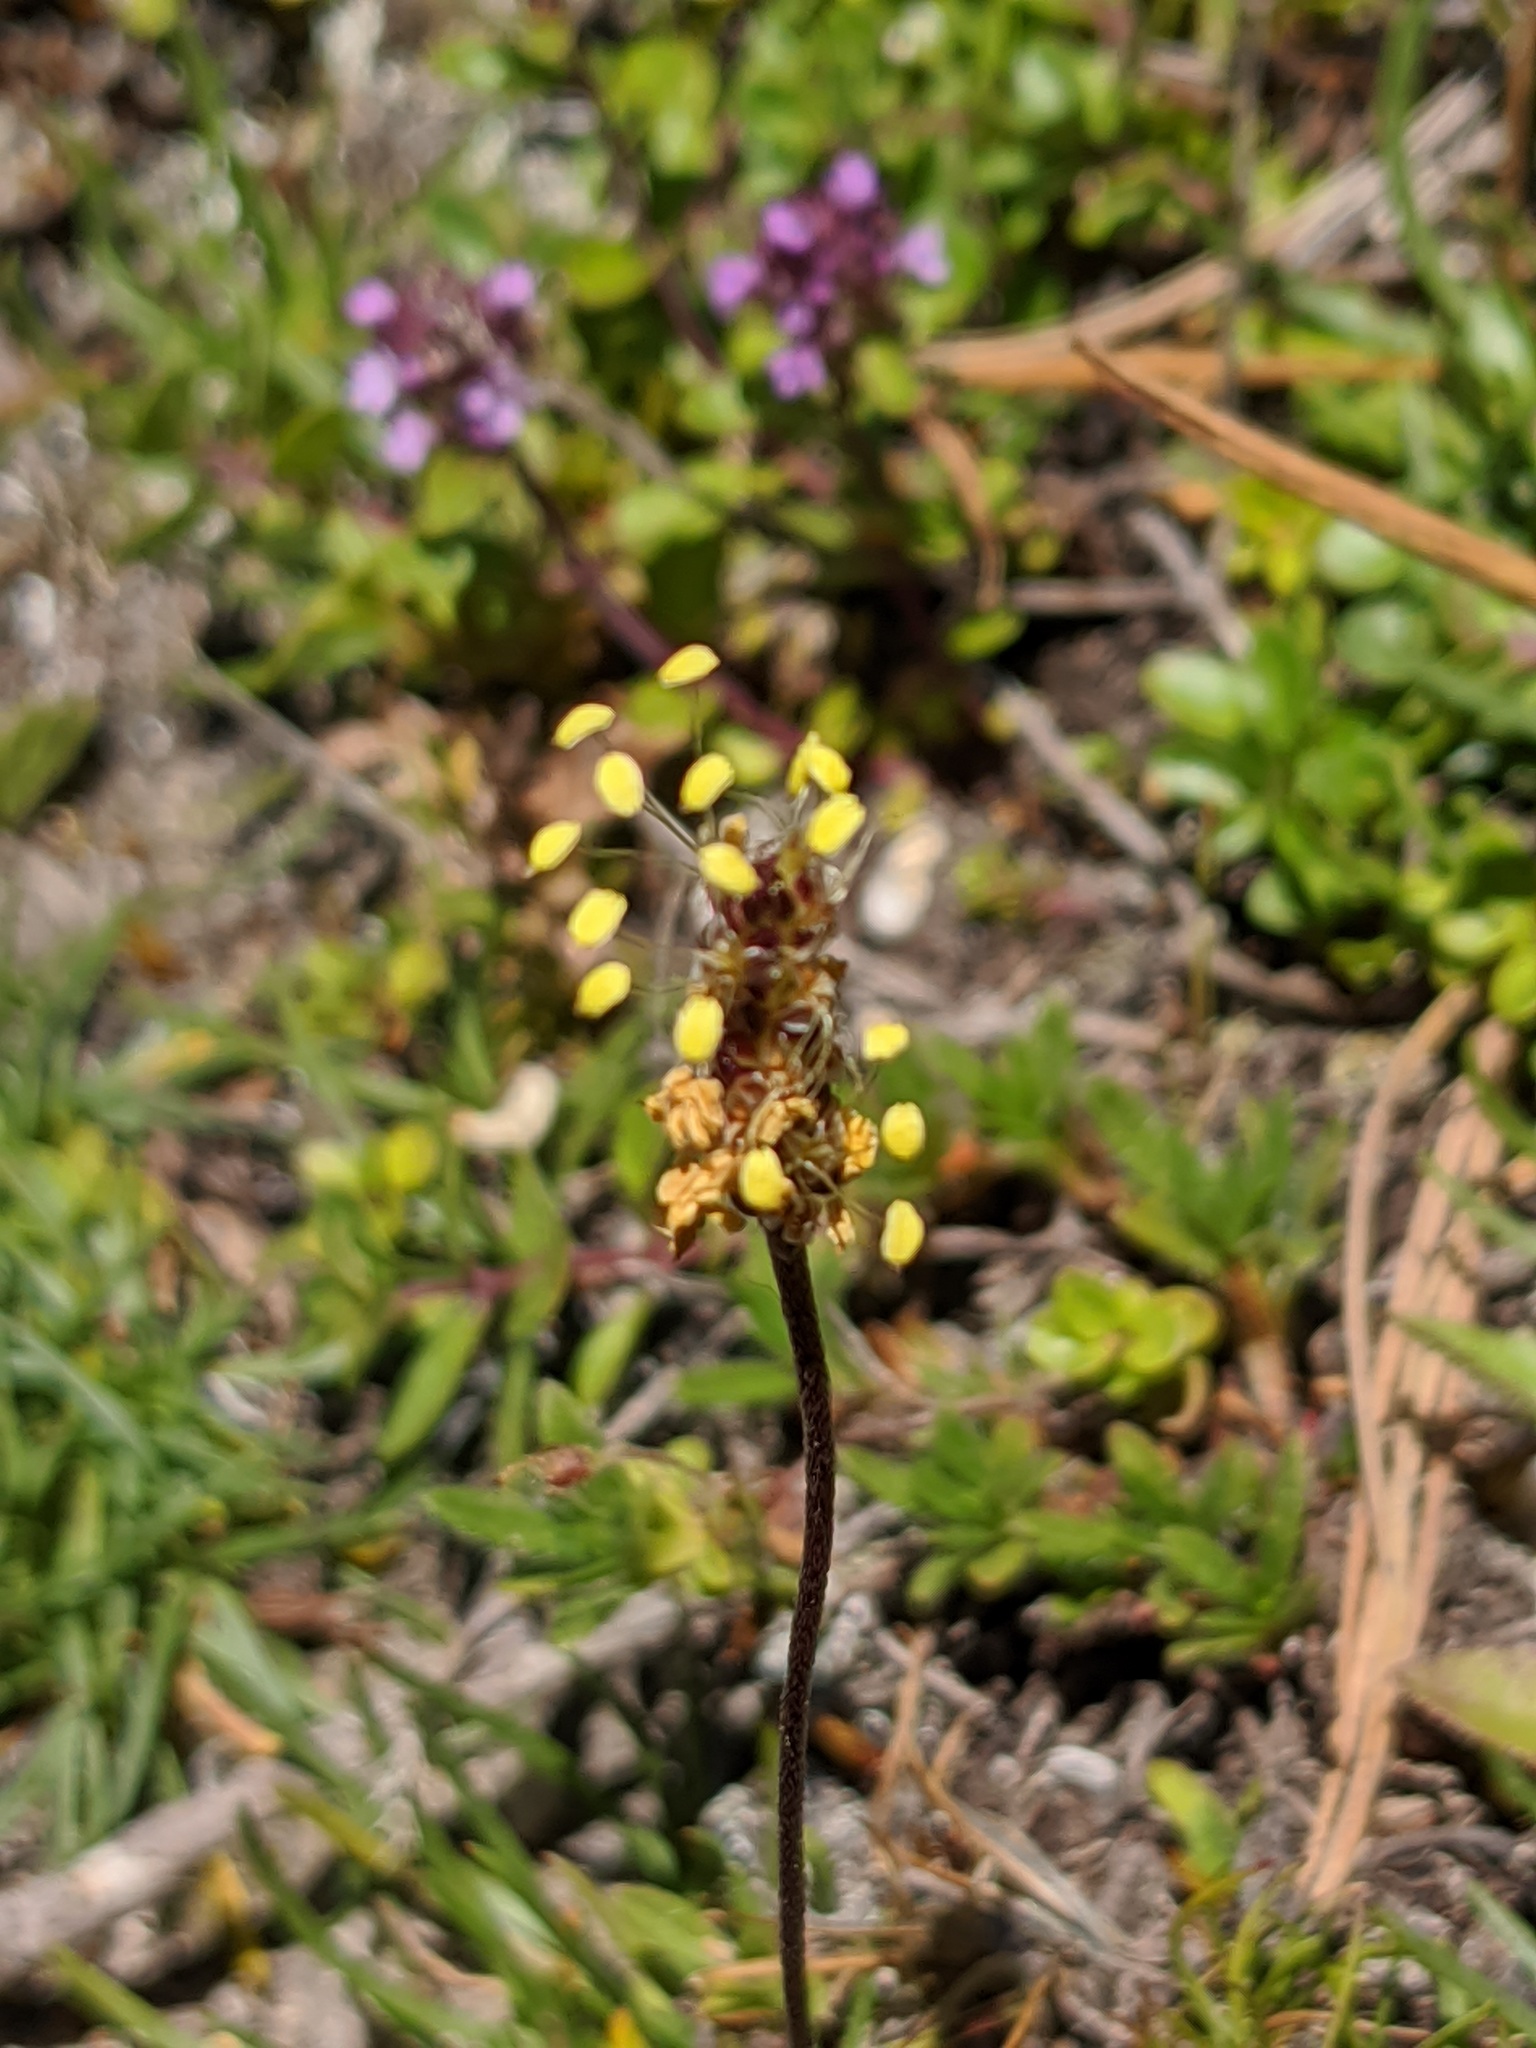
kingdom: Plantae
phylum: Tracheophyta
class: Magnoliopsida
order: Lamiales
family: Plantaginaceae
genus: Plantago
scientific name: Plantago alpina
